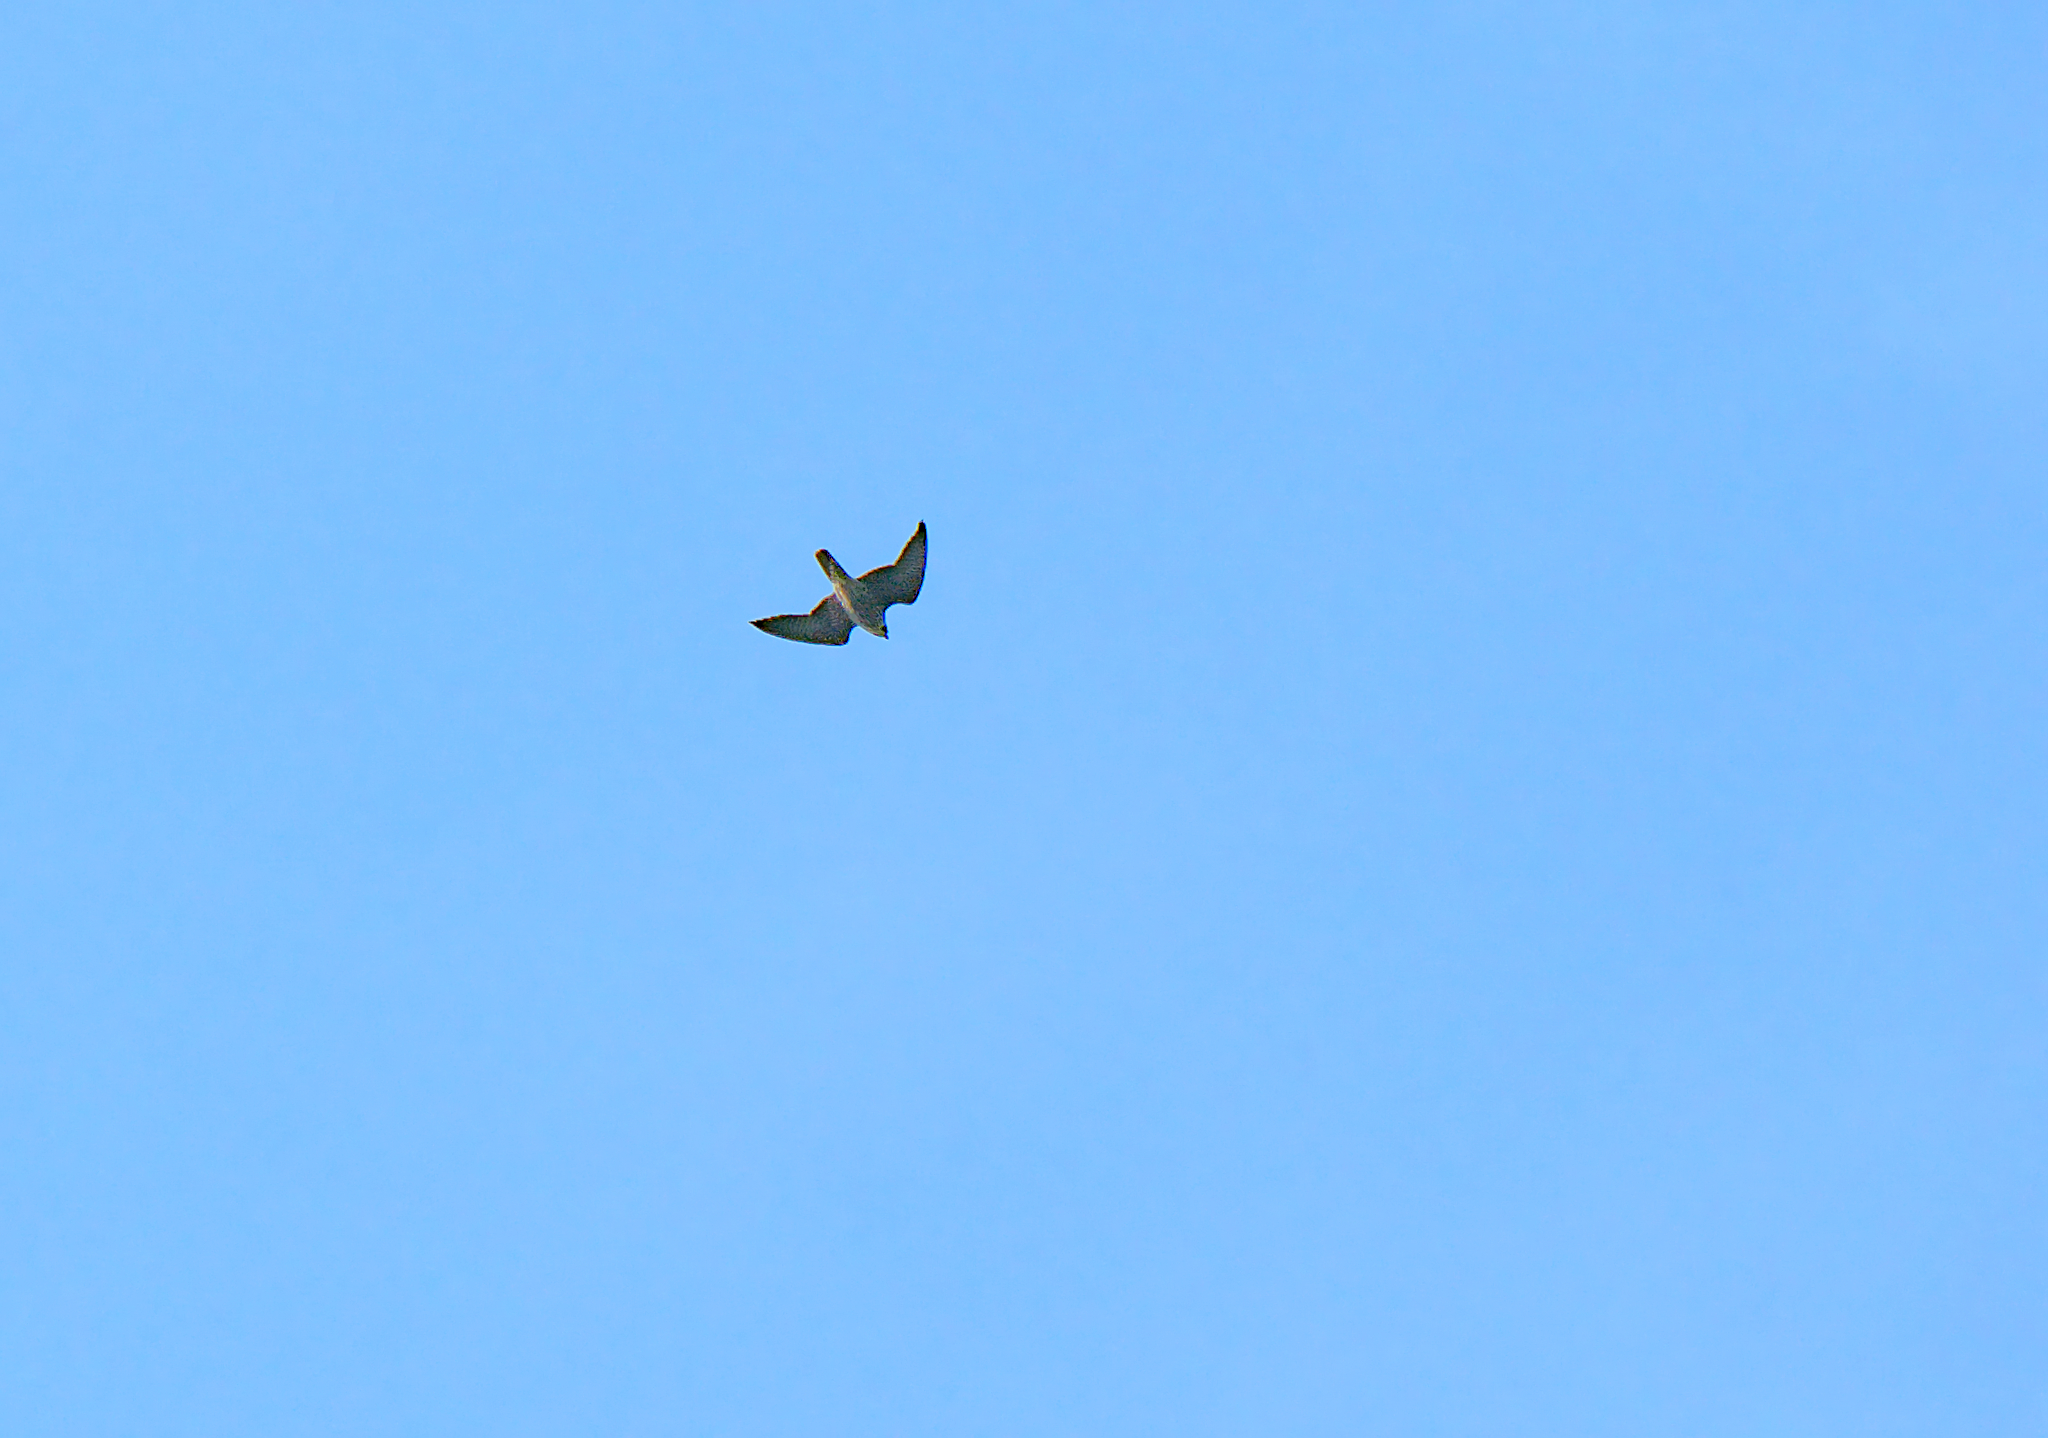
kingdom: Animalia
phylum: Chordata
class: Aves
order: Falconiformes
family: Falconidae
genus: Falco
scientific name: Falco peregrinus
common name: Peregrine falcon
